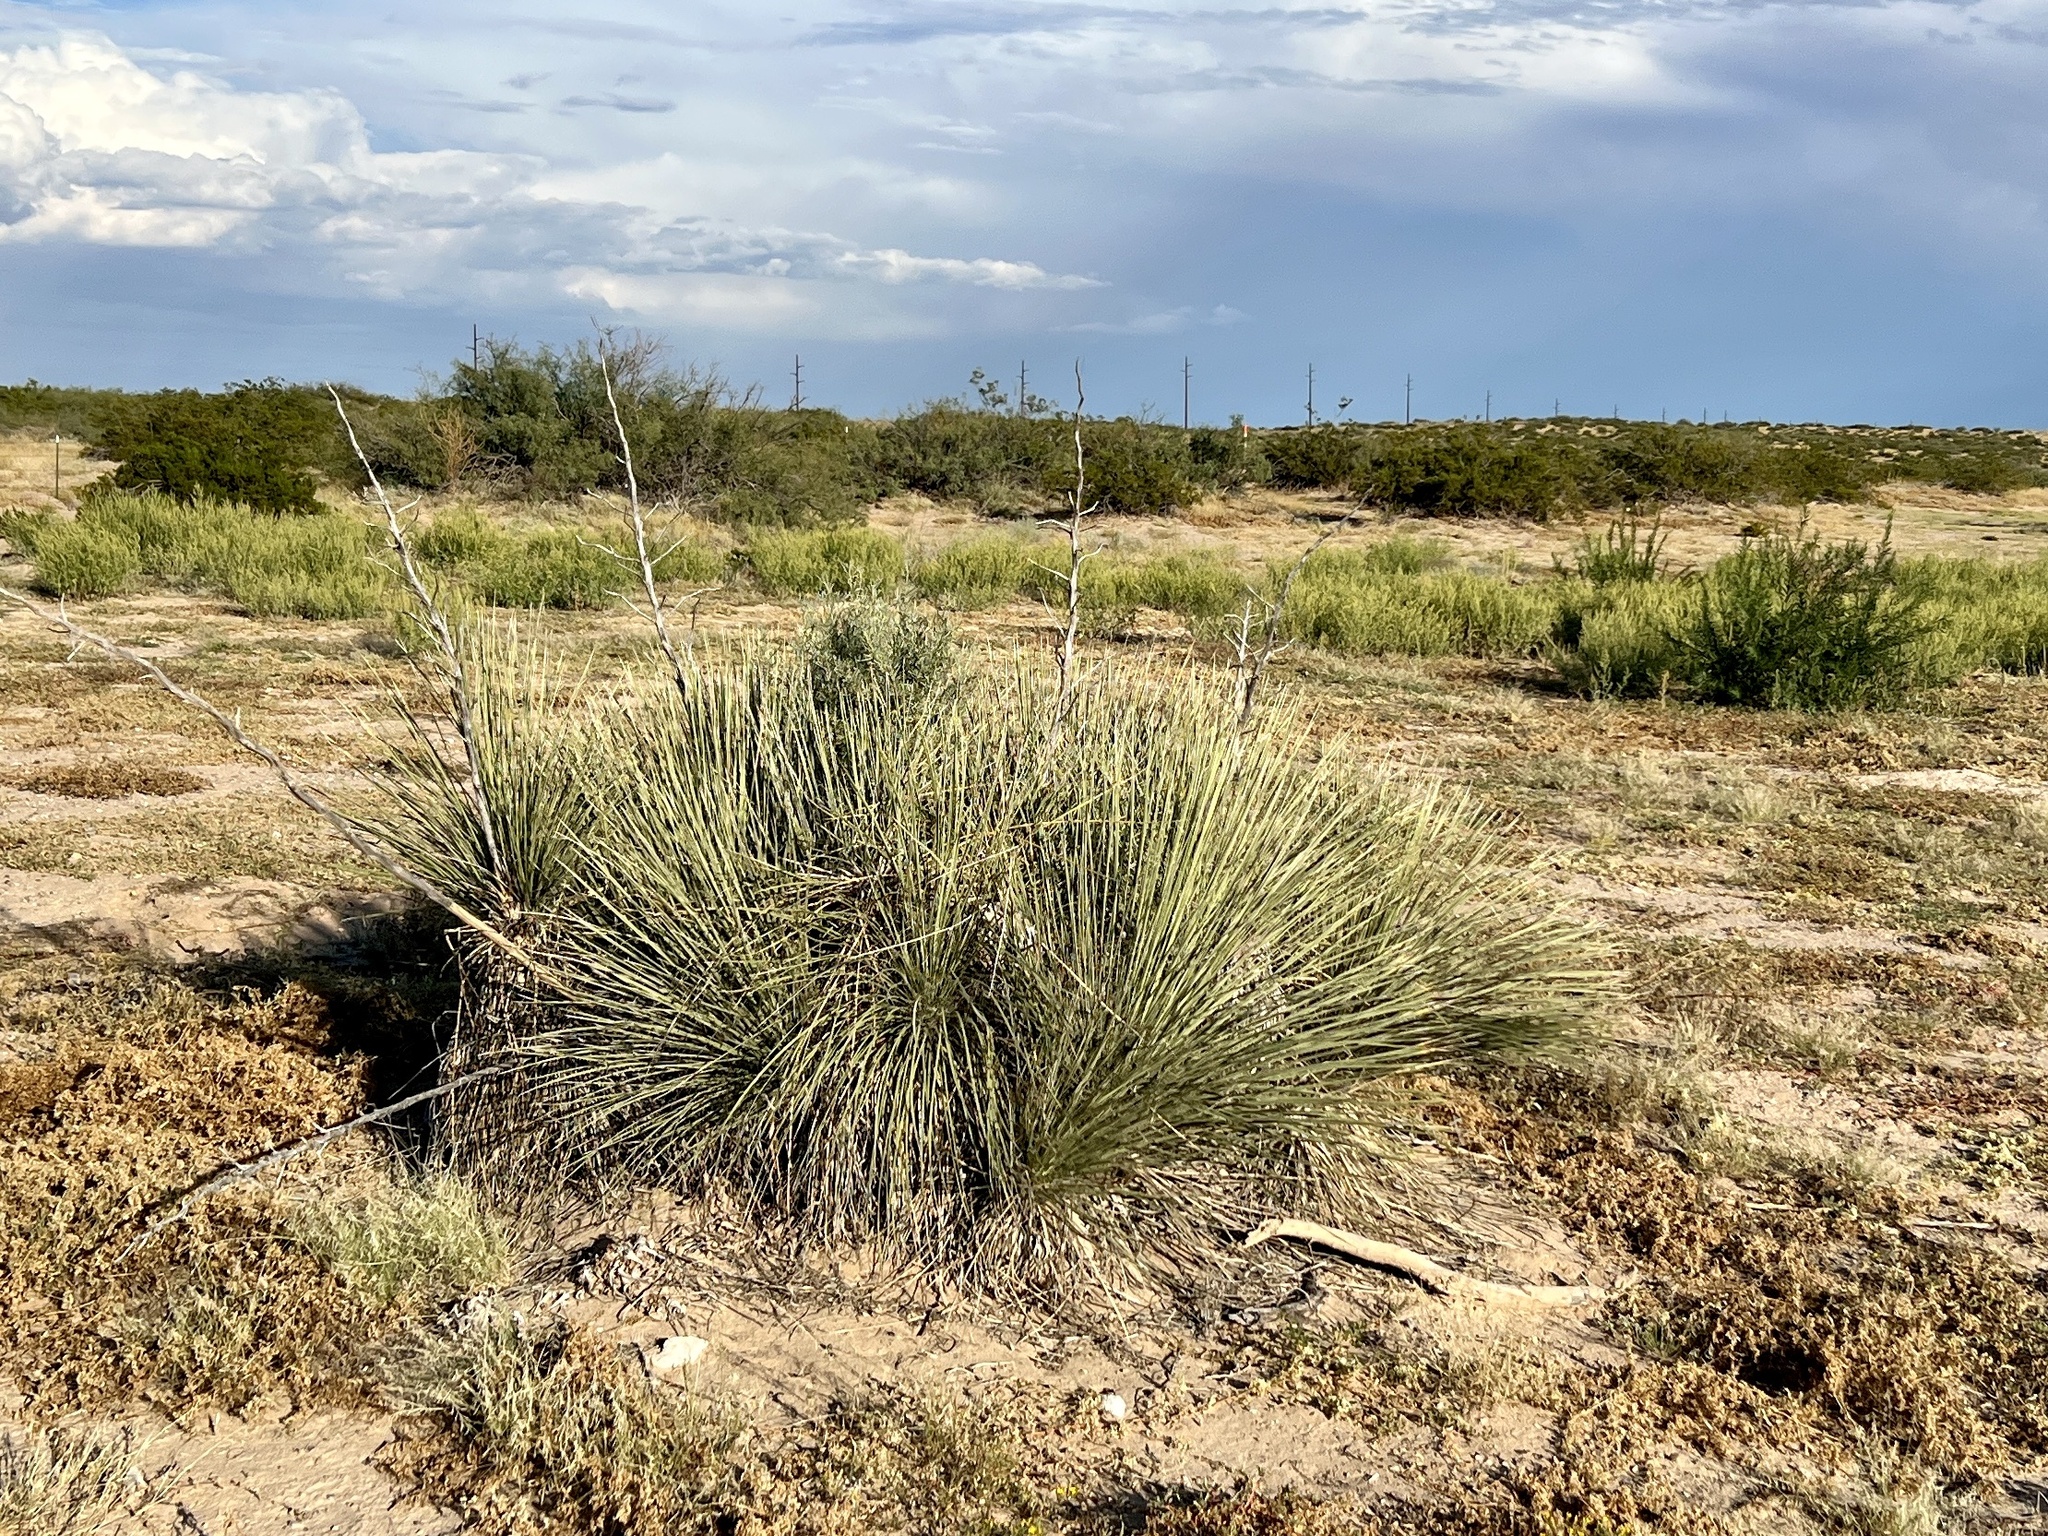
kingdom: Plantae
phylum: Tracheophyta
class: Liliopsida
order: Asparagales
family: Asparagaceae
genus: Yucca
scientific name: Yucca elata
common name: Palmella
